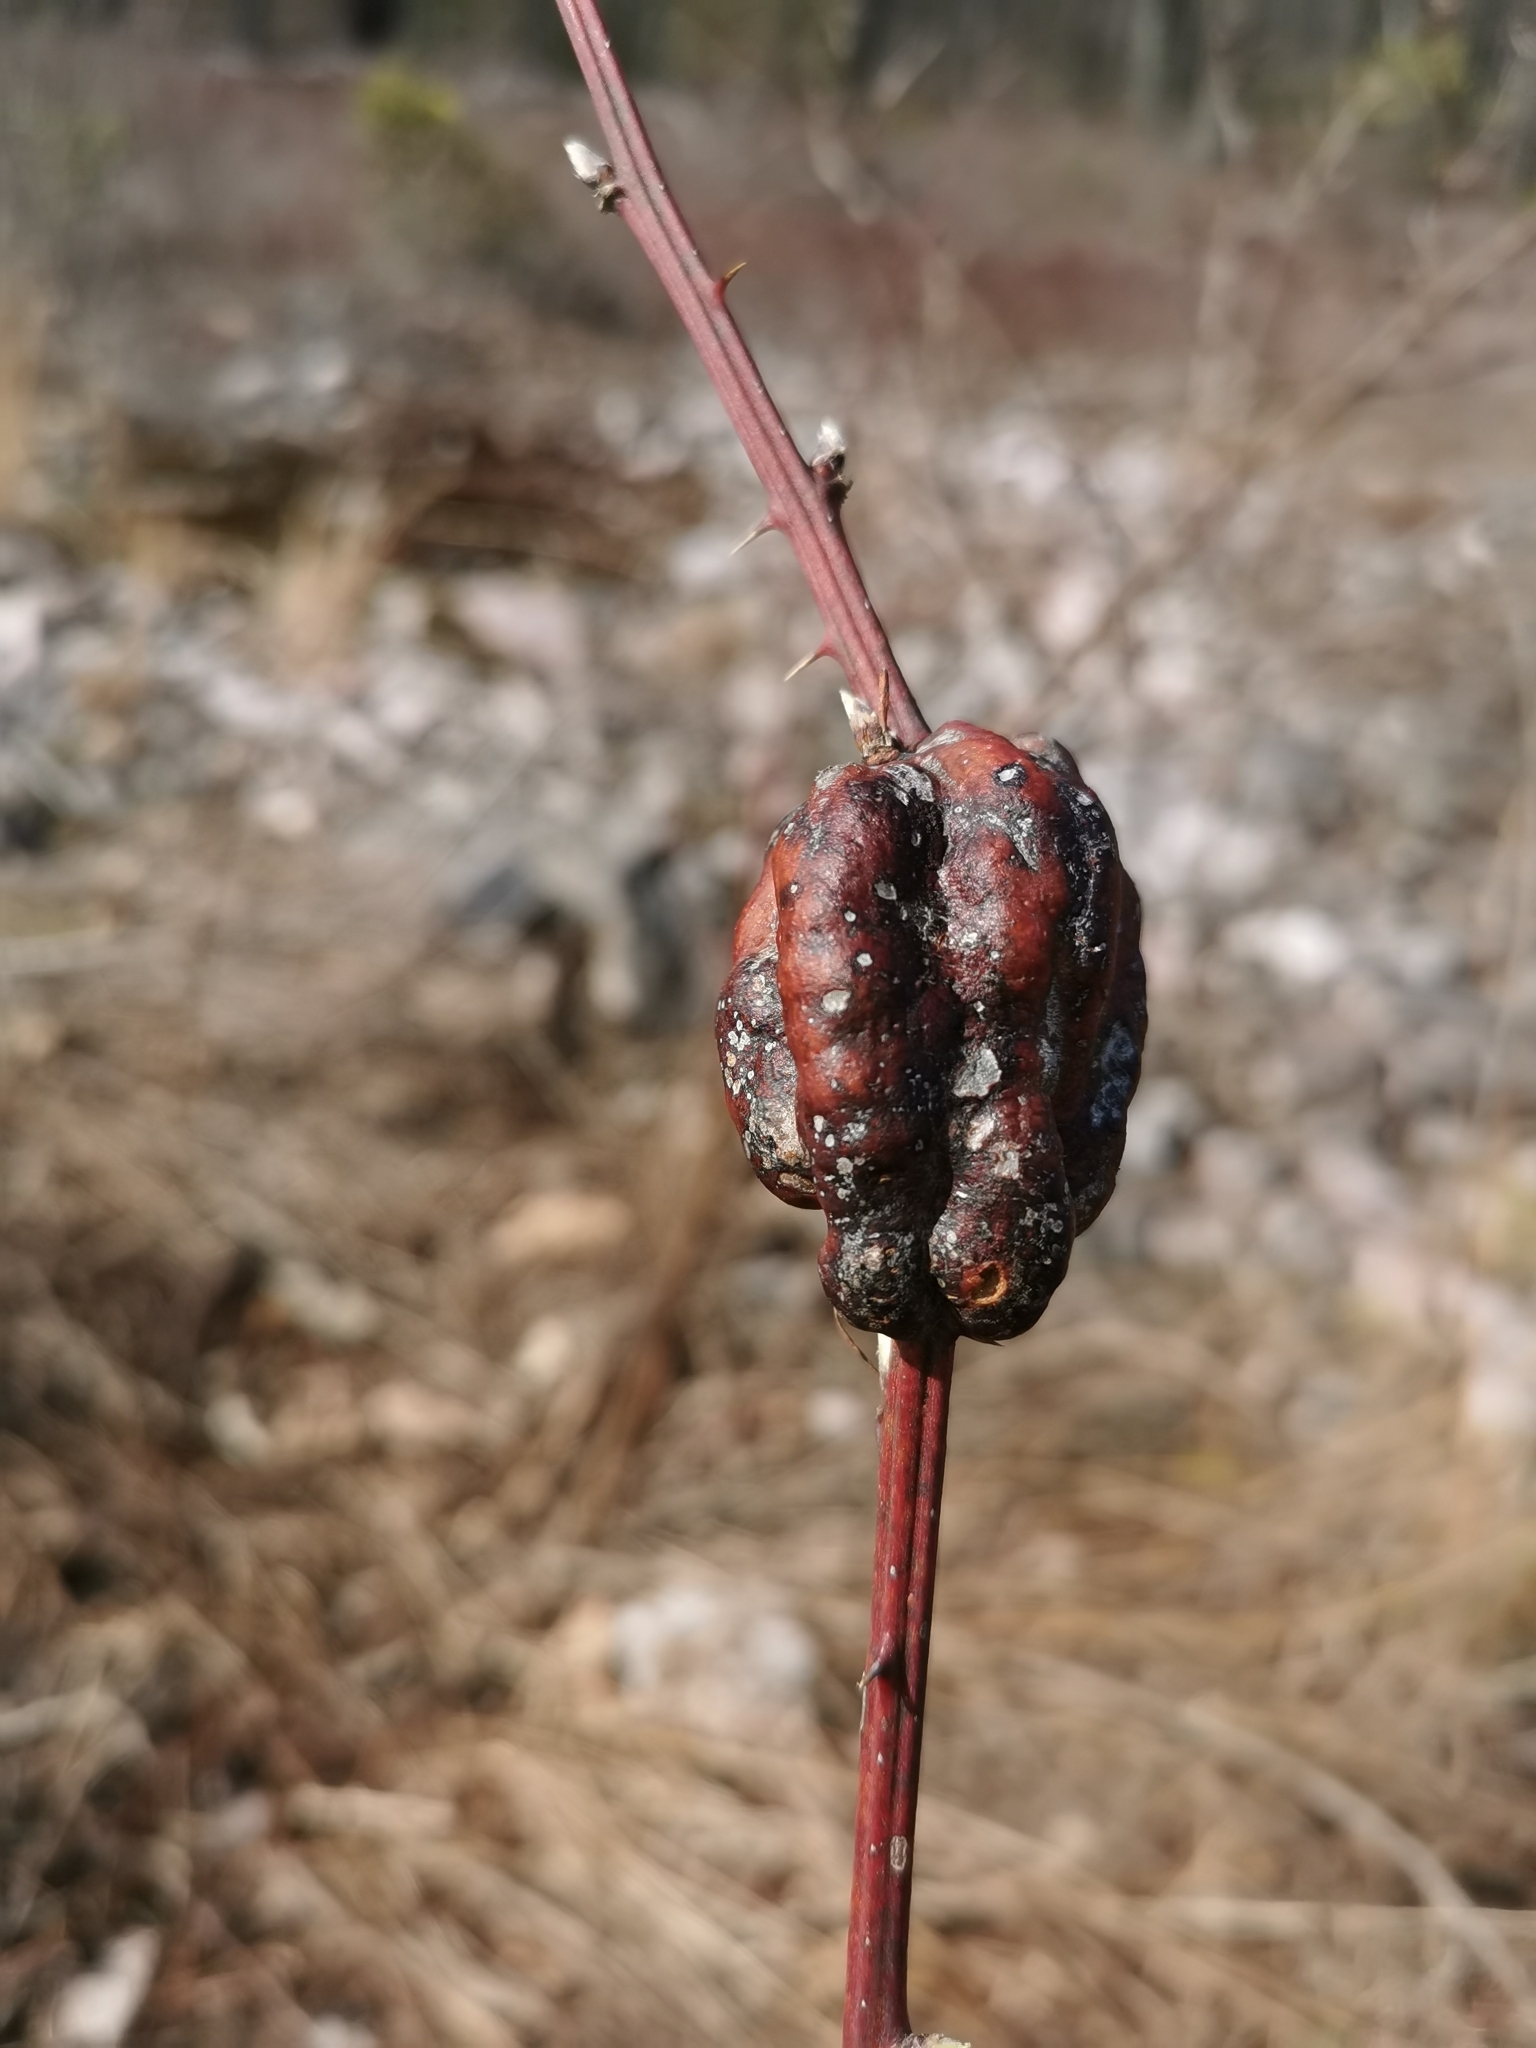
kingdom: Animalia
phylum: Arthropoda
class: Insecta
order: Hymenoptera
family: Cynipidae
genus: Diastrophus
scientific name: Diastrophus
